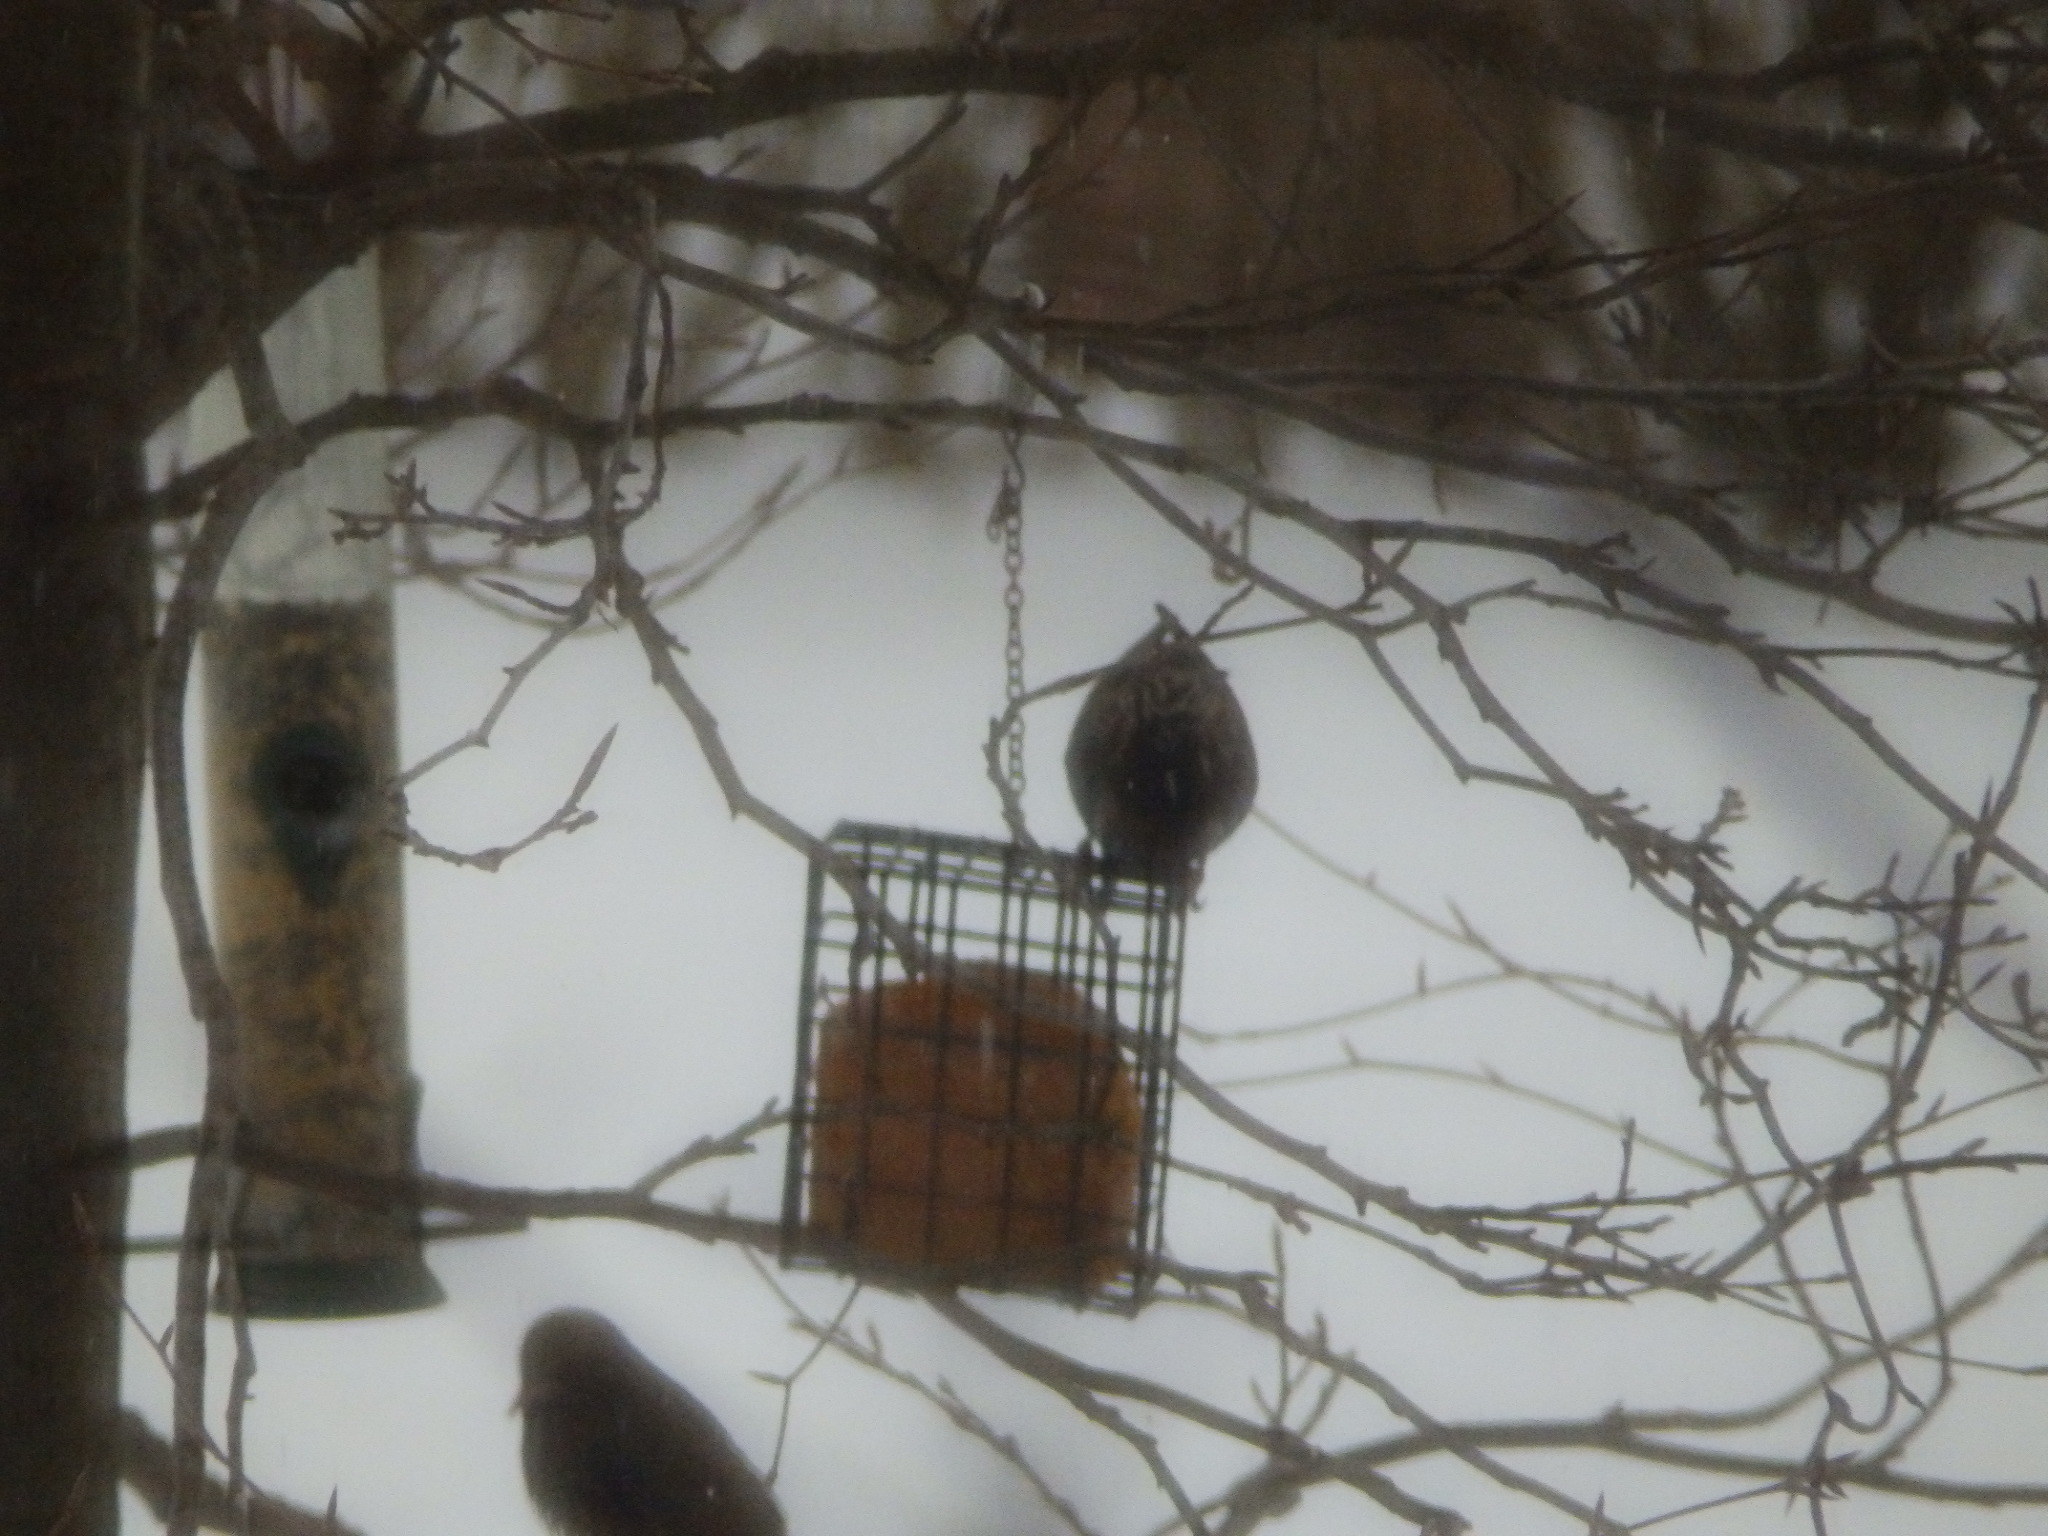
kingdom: Animalia
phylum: Chordata
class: Aves
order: Passeriformes
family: Sturnidae
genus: Sturnus
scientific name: Sturnus vulgaris
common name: Common starling
